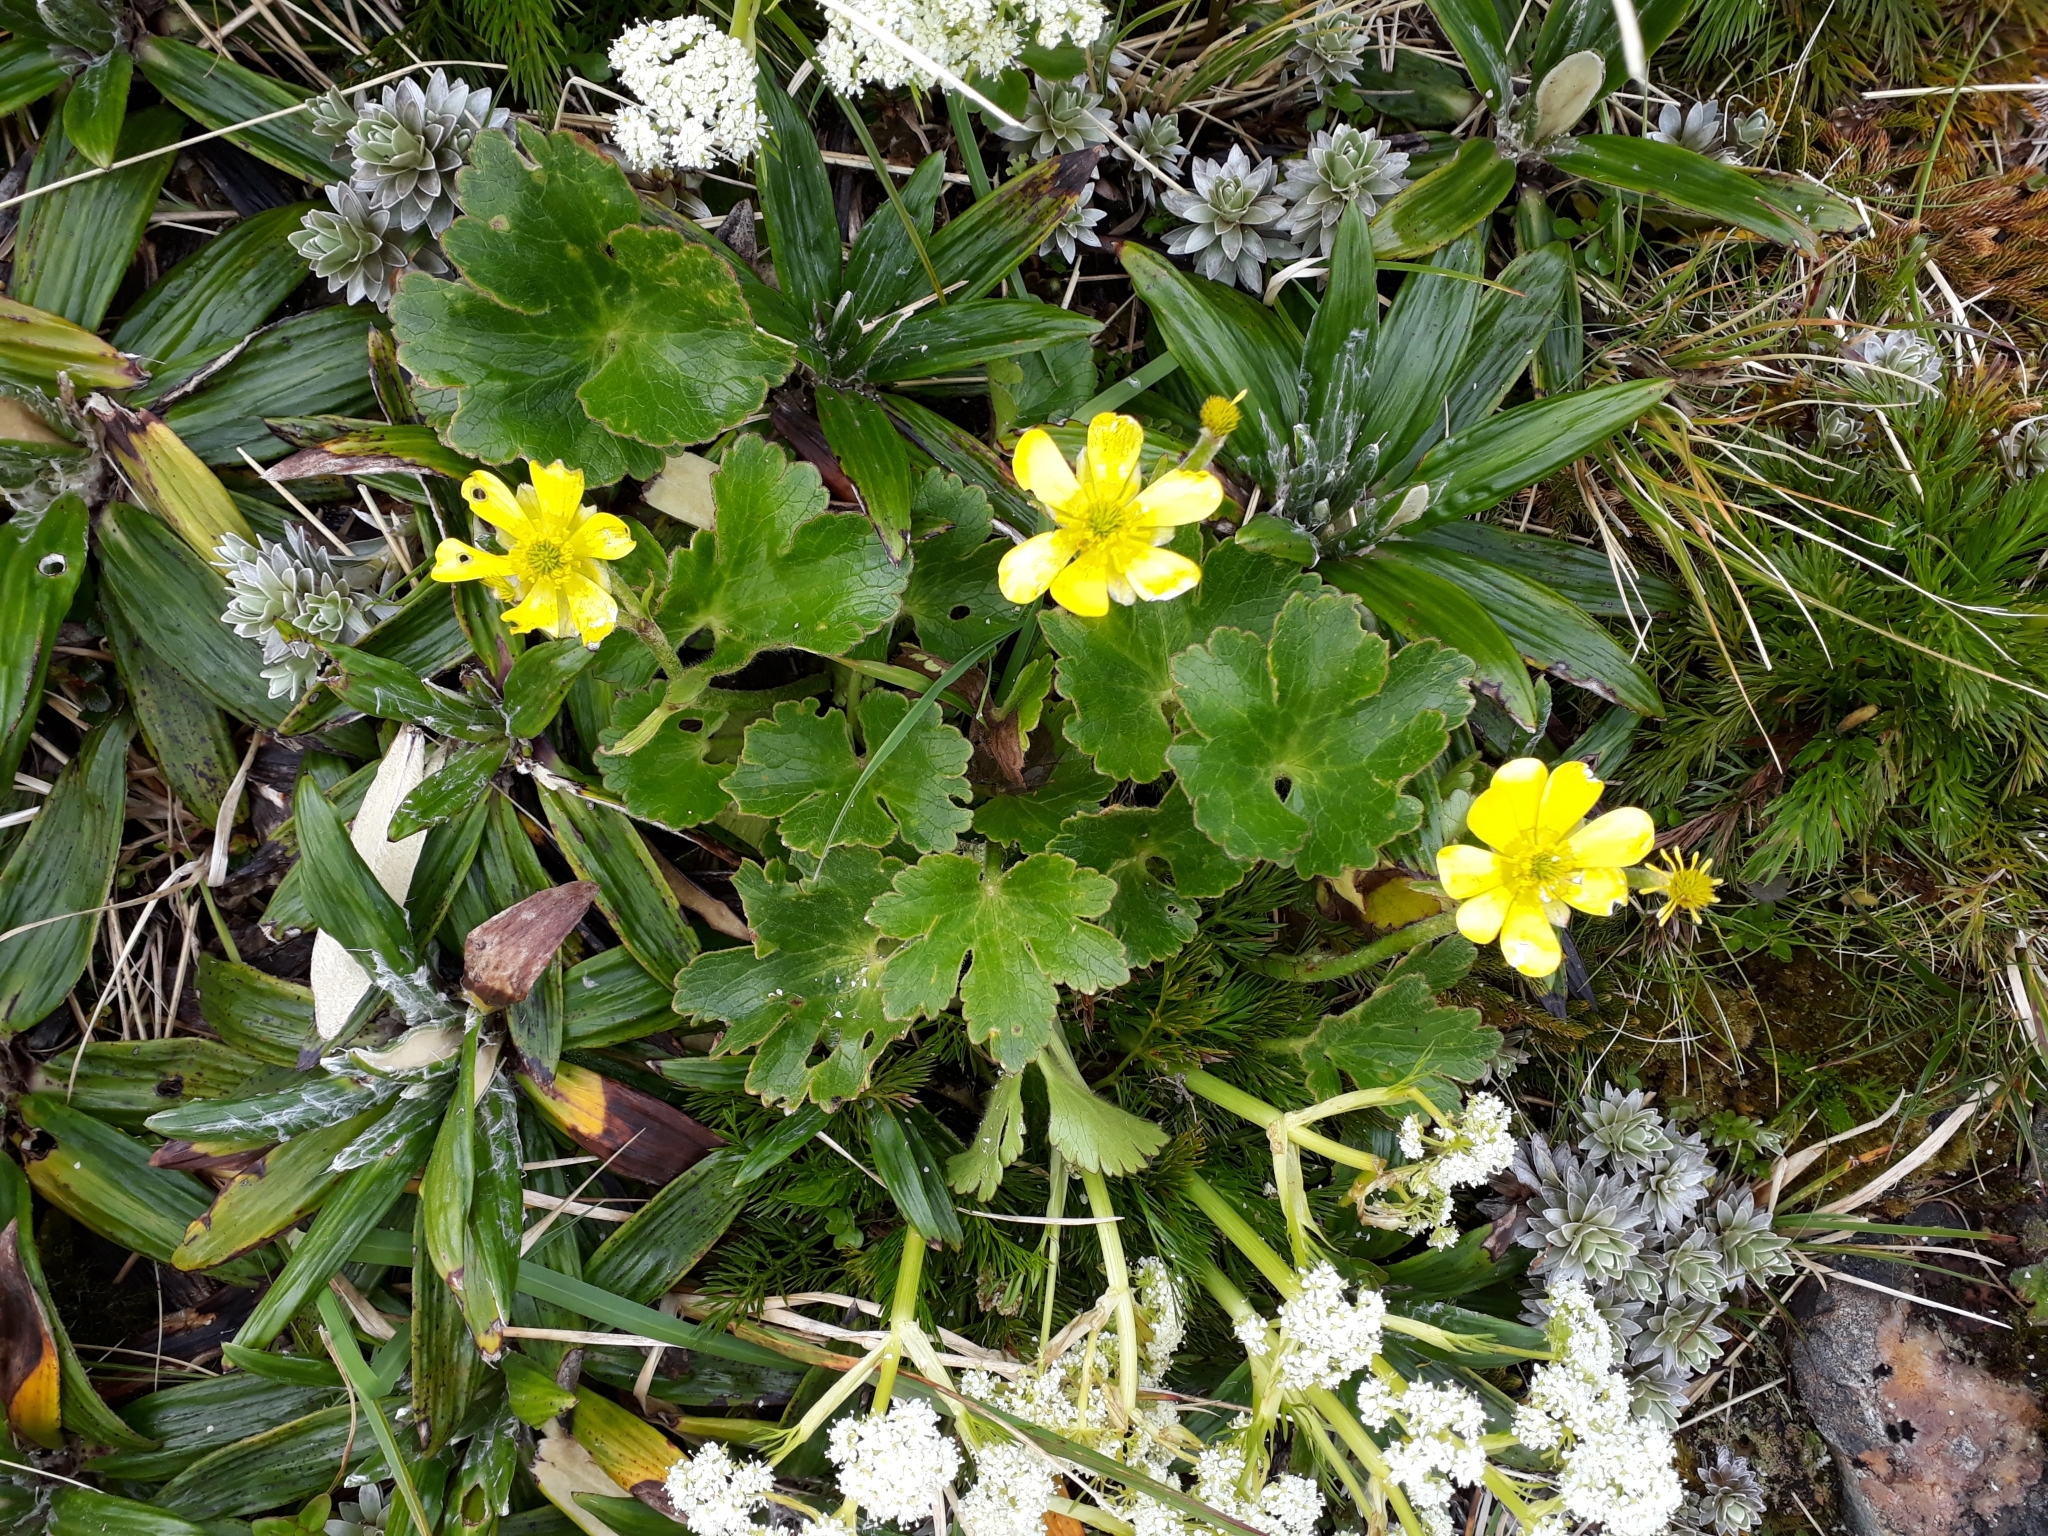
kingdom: Plantae
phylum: Tracheophyta
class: Magnoliopsida
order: Ranunculales
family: Ranunculaceae
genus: Ranunculus
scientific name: Ranunculus insignis
